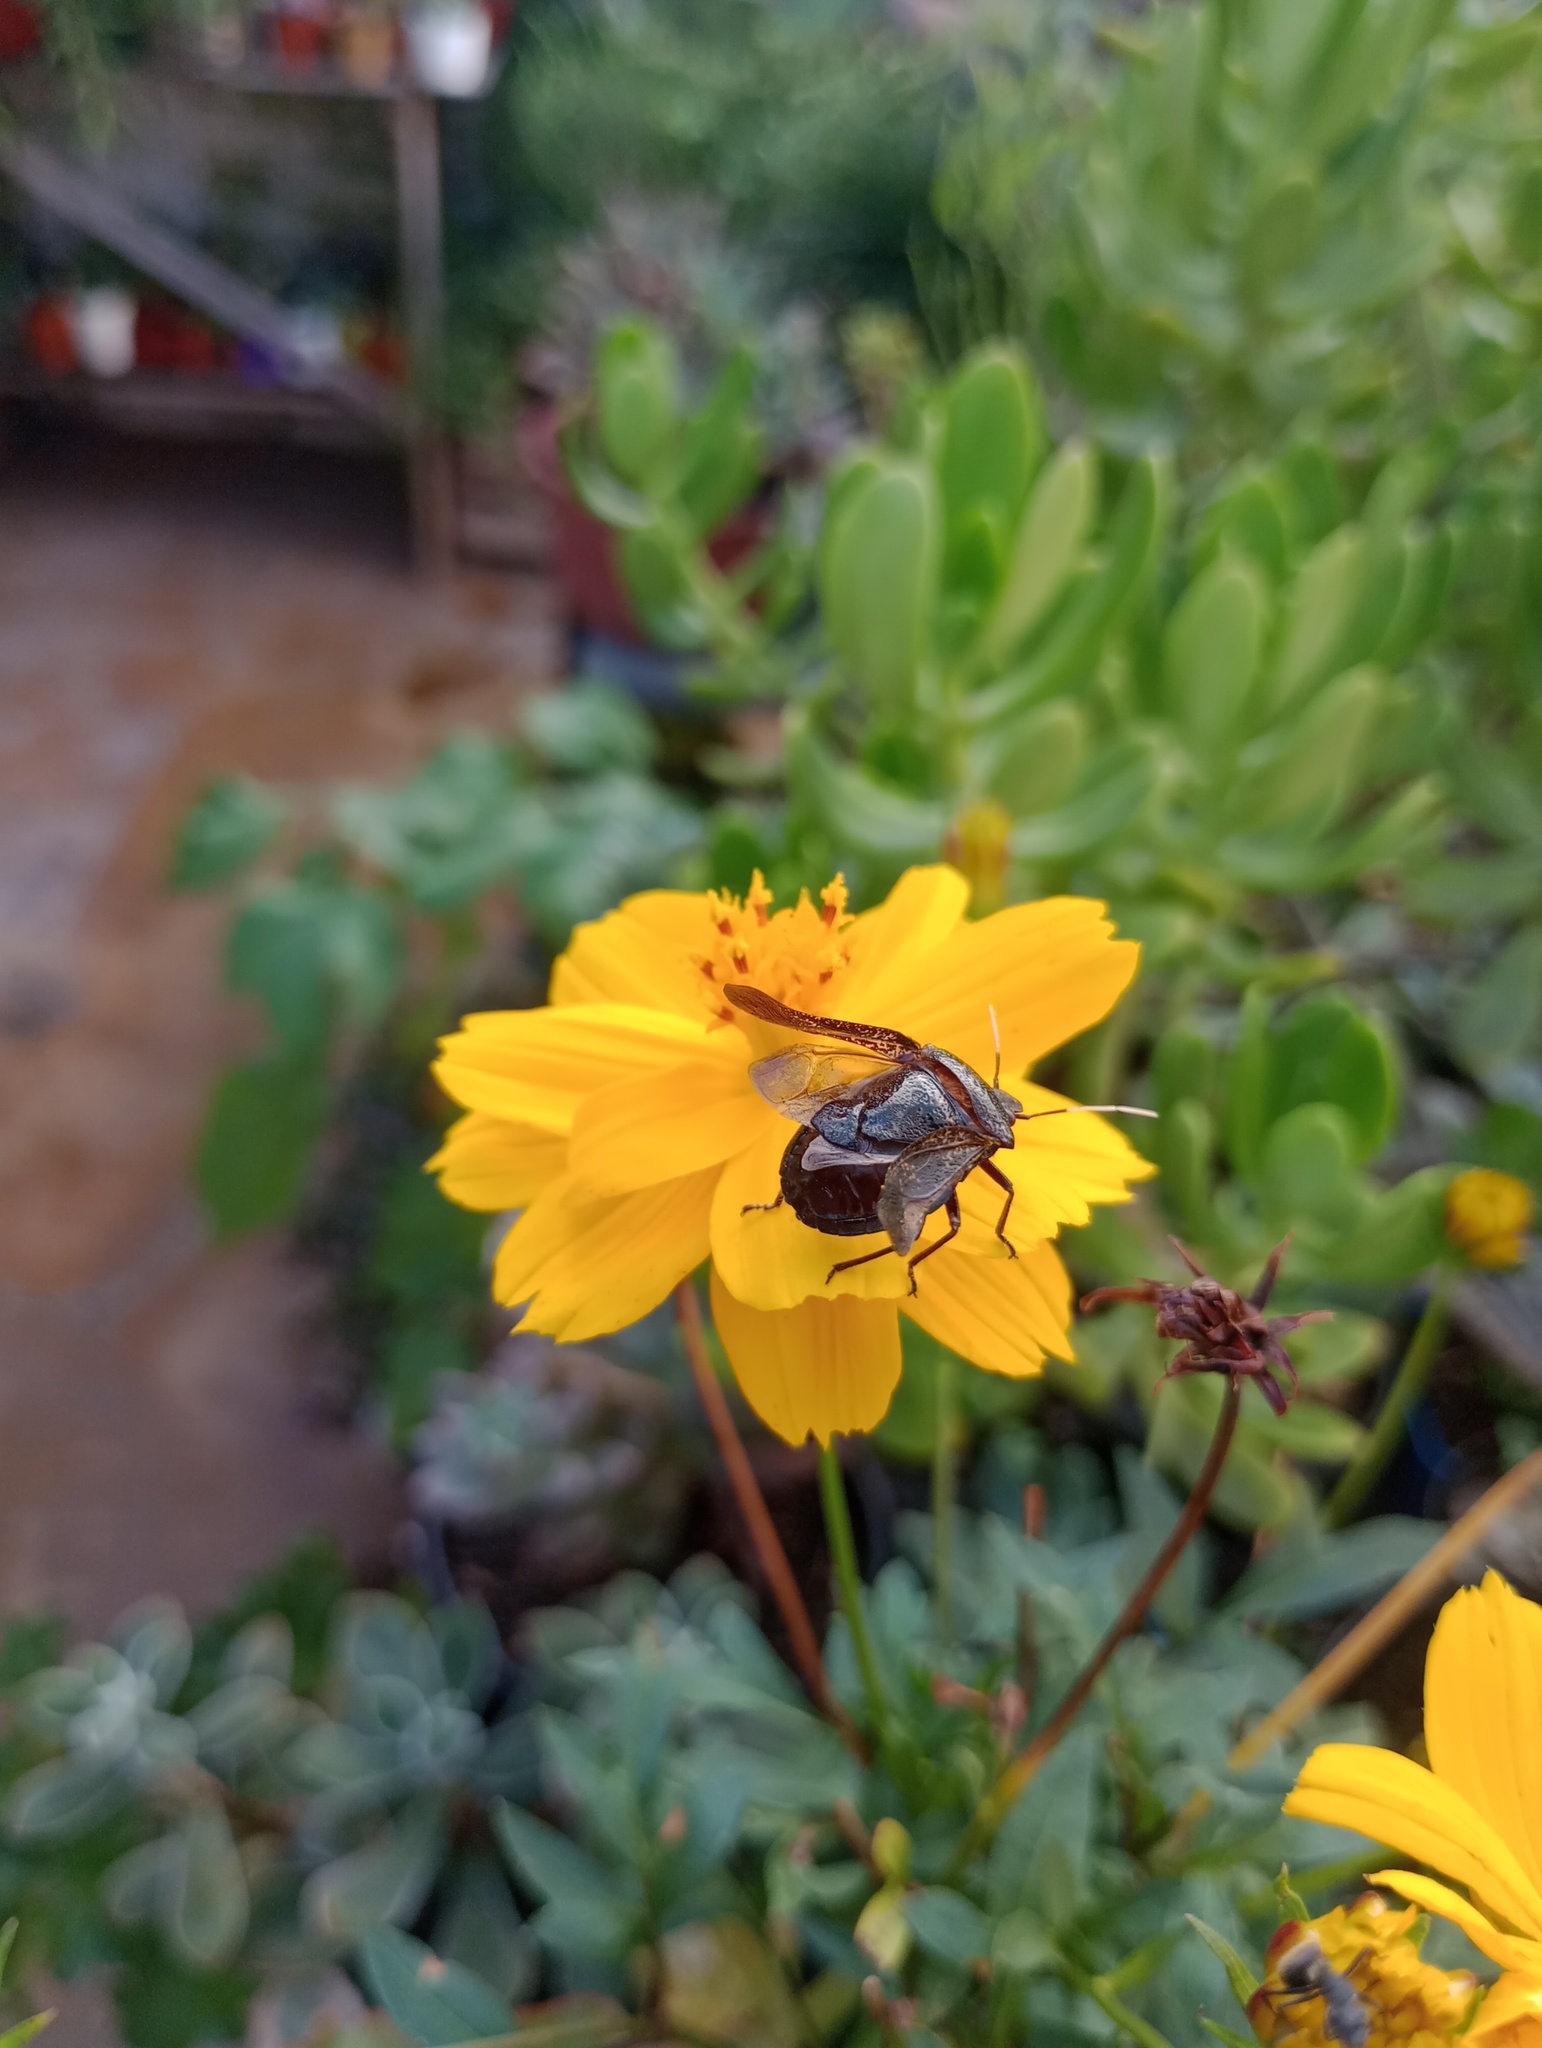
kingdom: Animalia
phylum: Arthropoda
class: Insecta
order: Hemiptera
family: Pentatomidae
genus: Antiteuchus
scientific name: Antiteuchus mixtus
